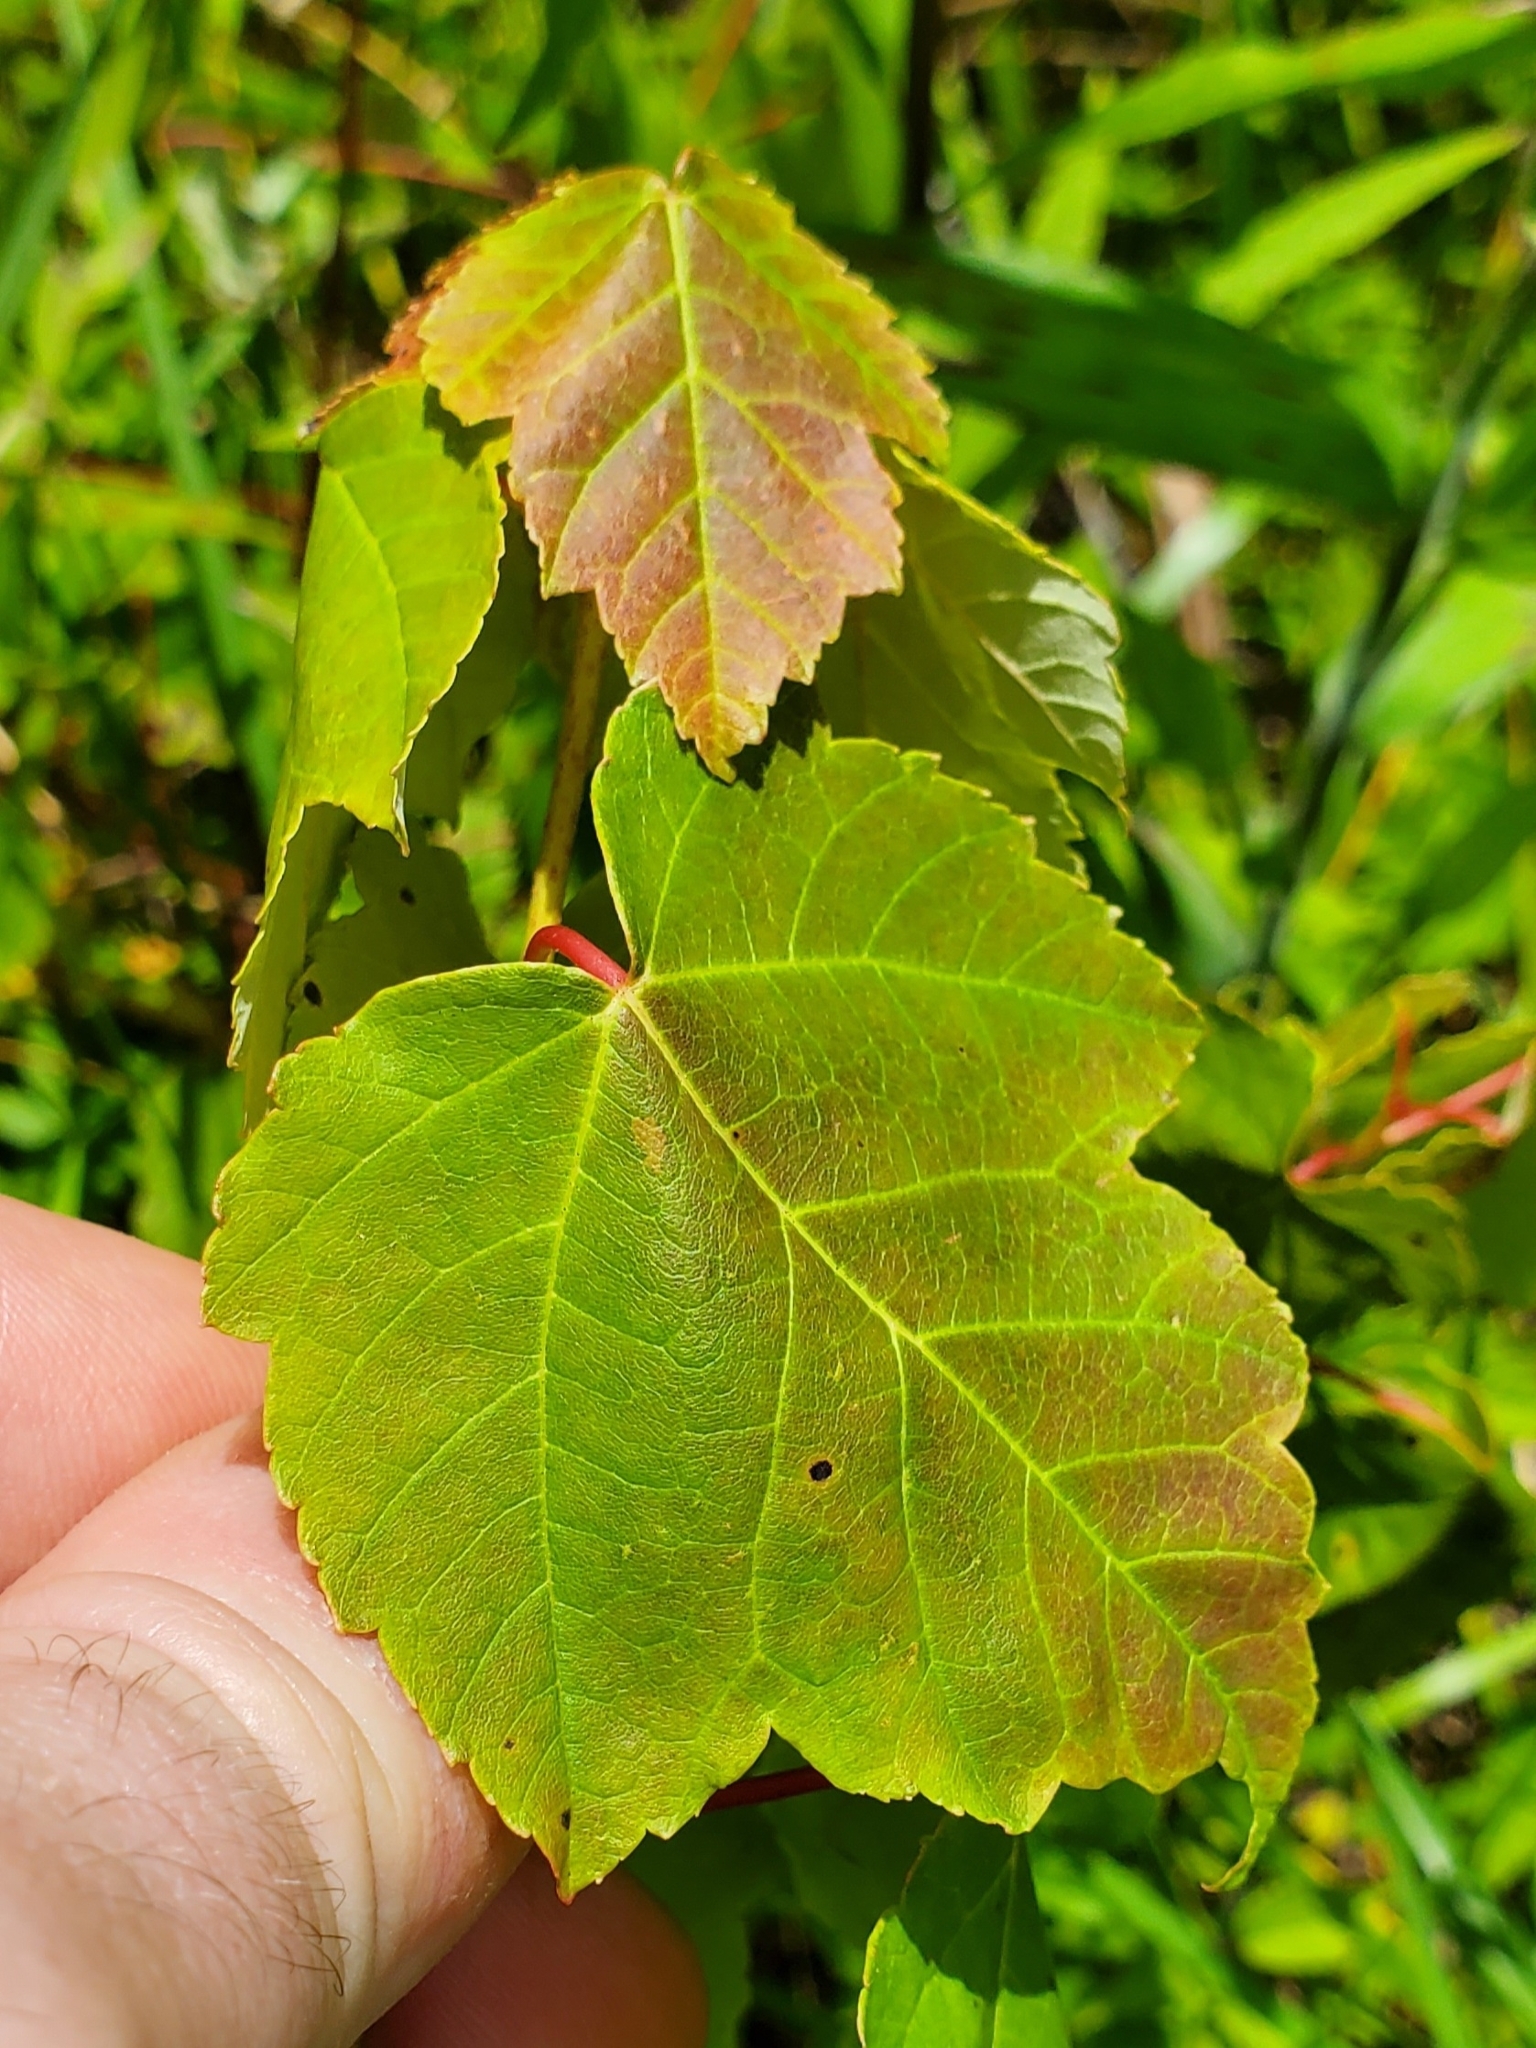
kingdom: Plantae
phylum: Tracheophyta
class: Magnoliopsida
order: Sapindales
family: Sapindaceae
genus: Acer
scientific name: Acer rubrum
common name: Red maple
